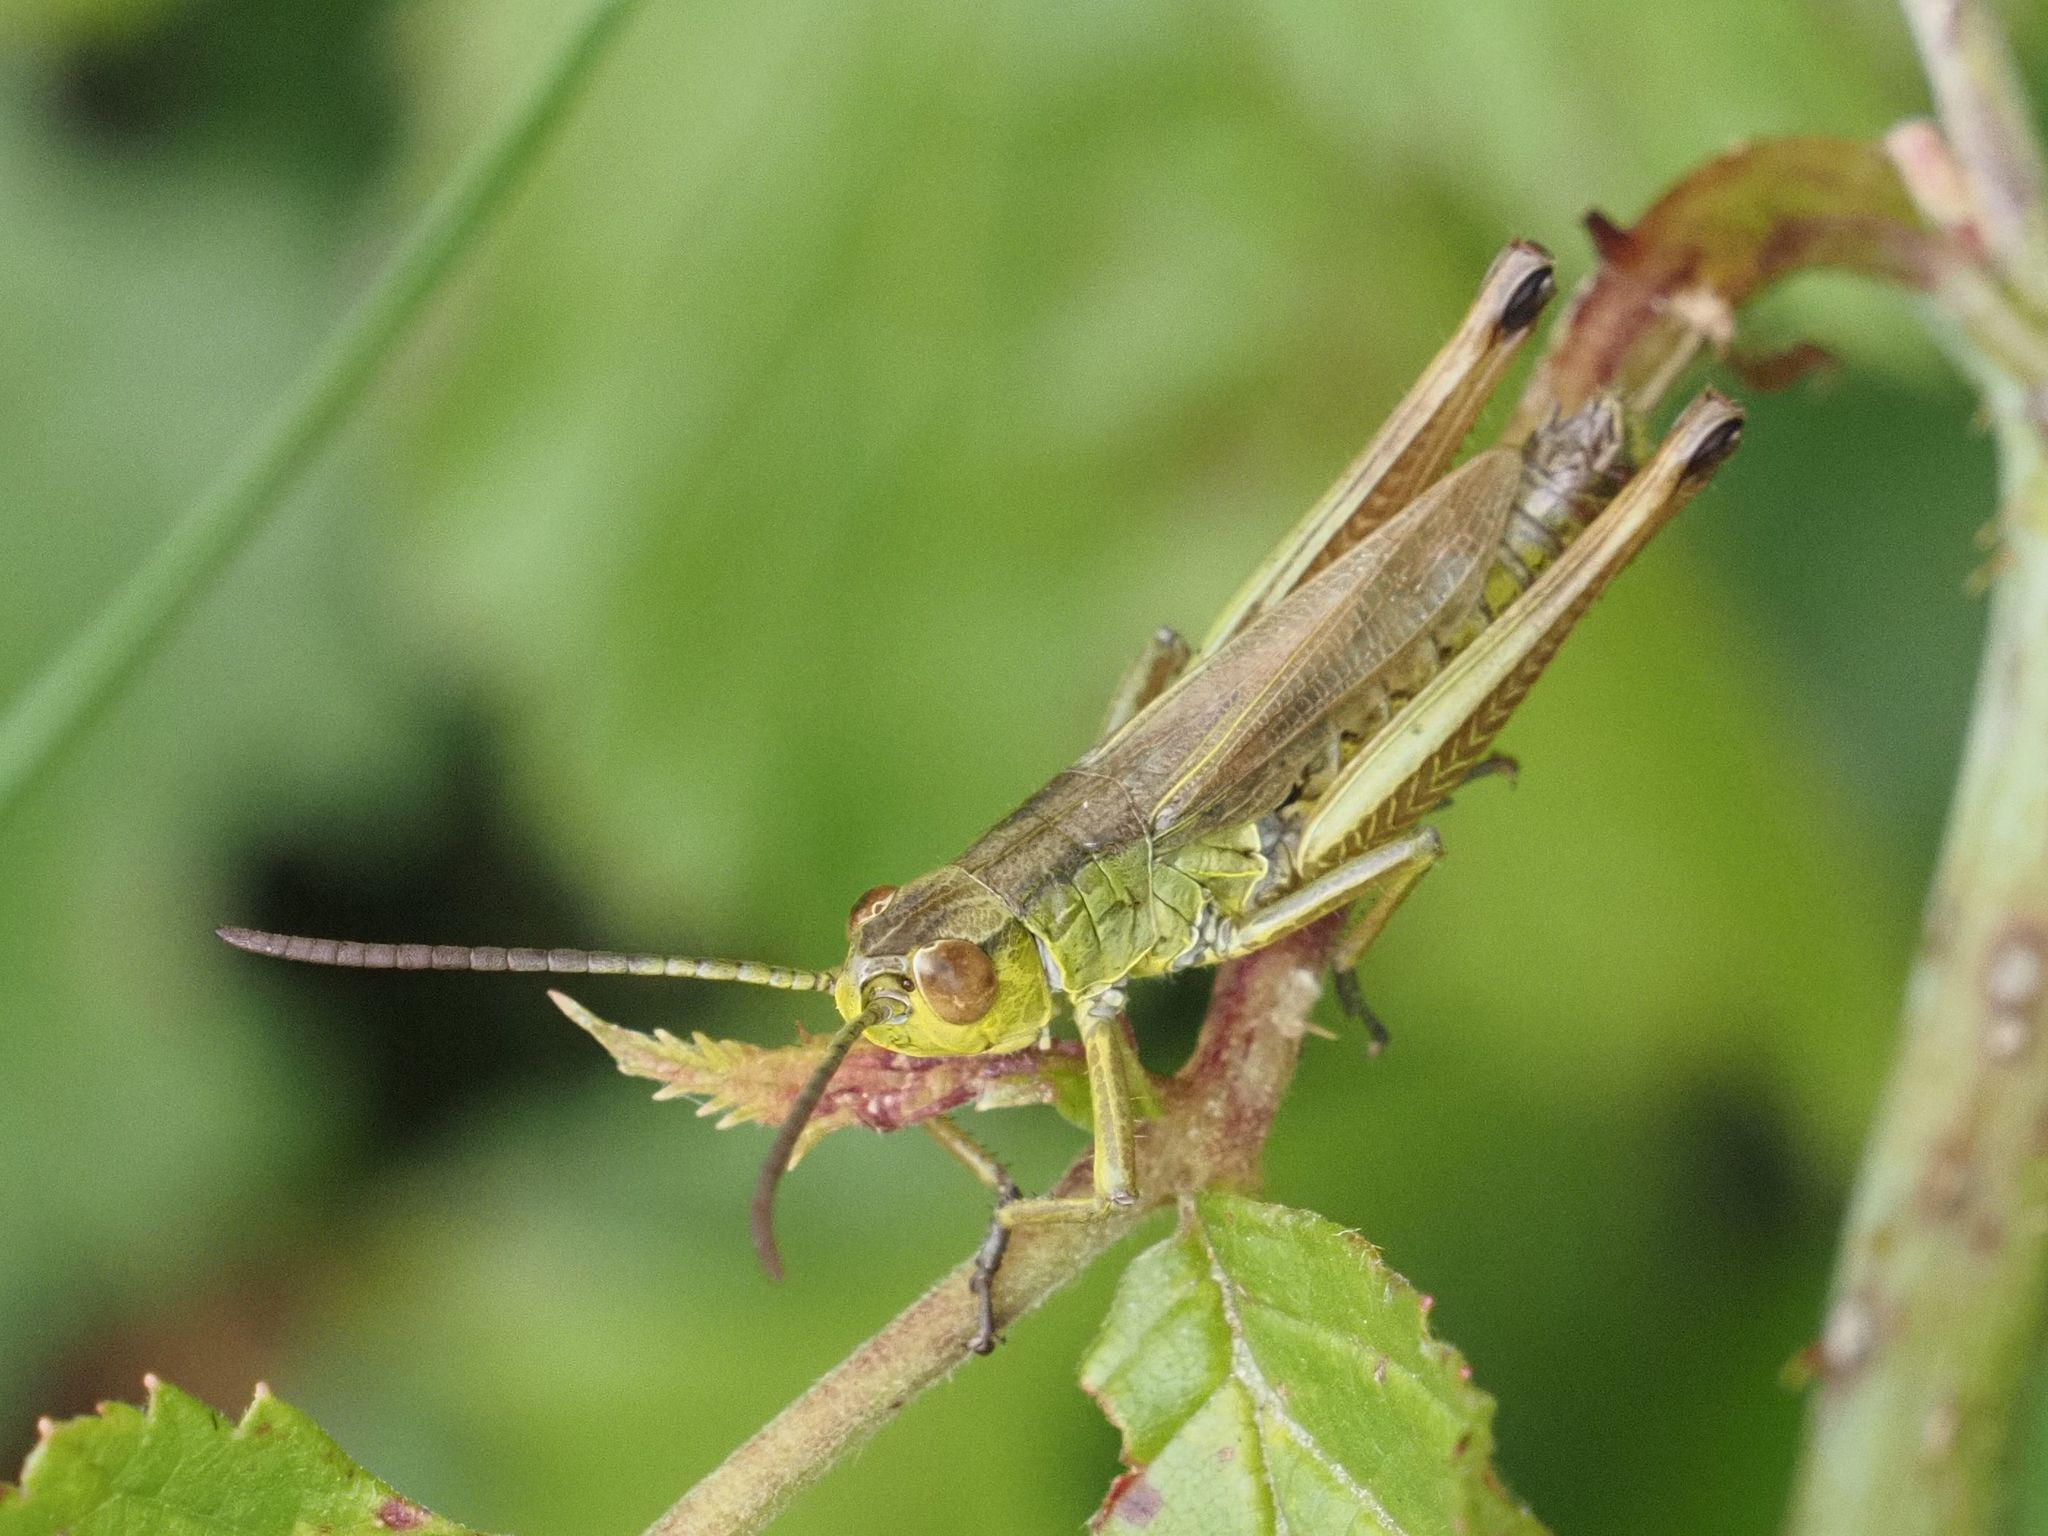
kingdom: Animalia
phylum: Arthropoda
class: Insecta
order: Orthoptera
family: Acrididae
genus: Pseudochorthippus
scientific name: Pseudochorthippus parallelus
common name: Meadow grasshopper
